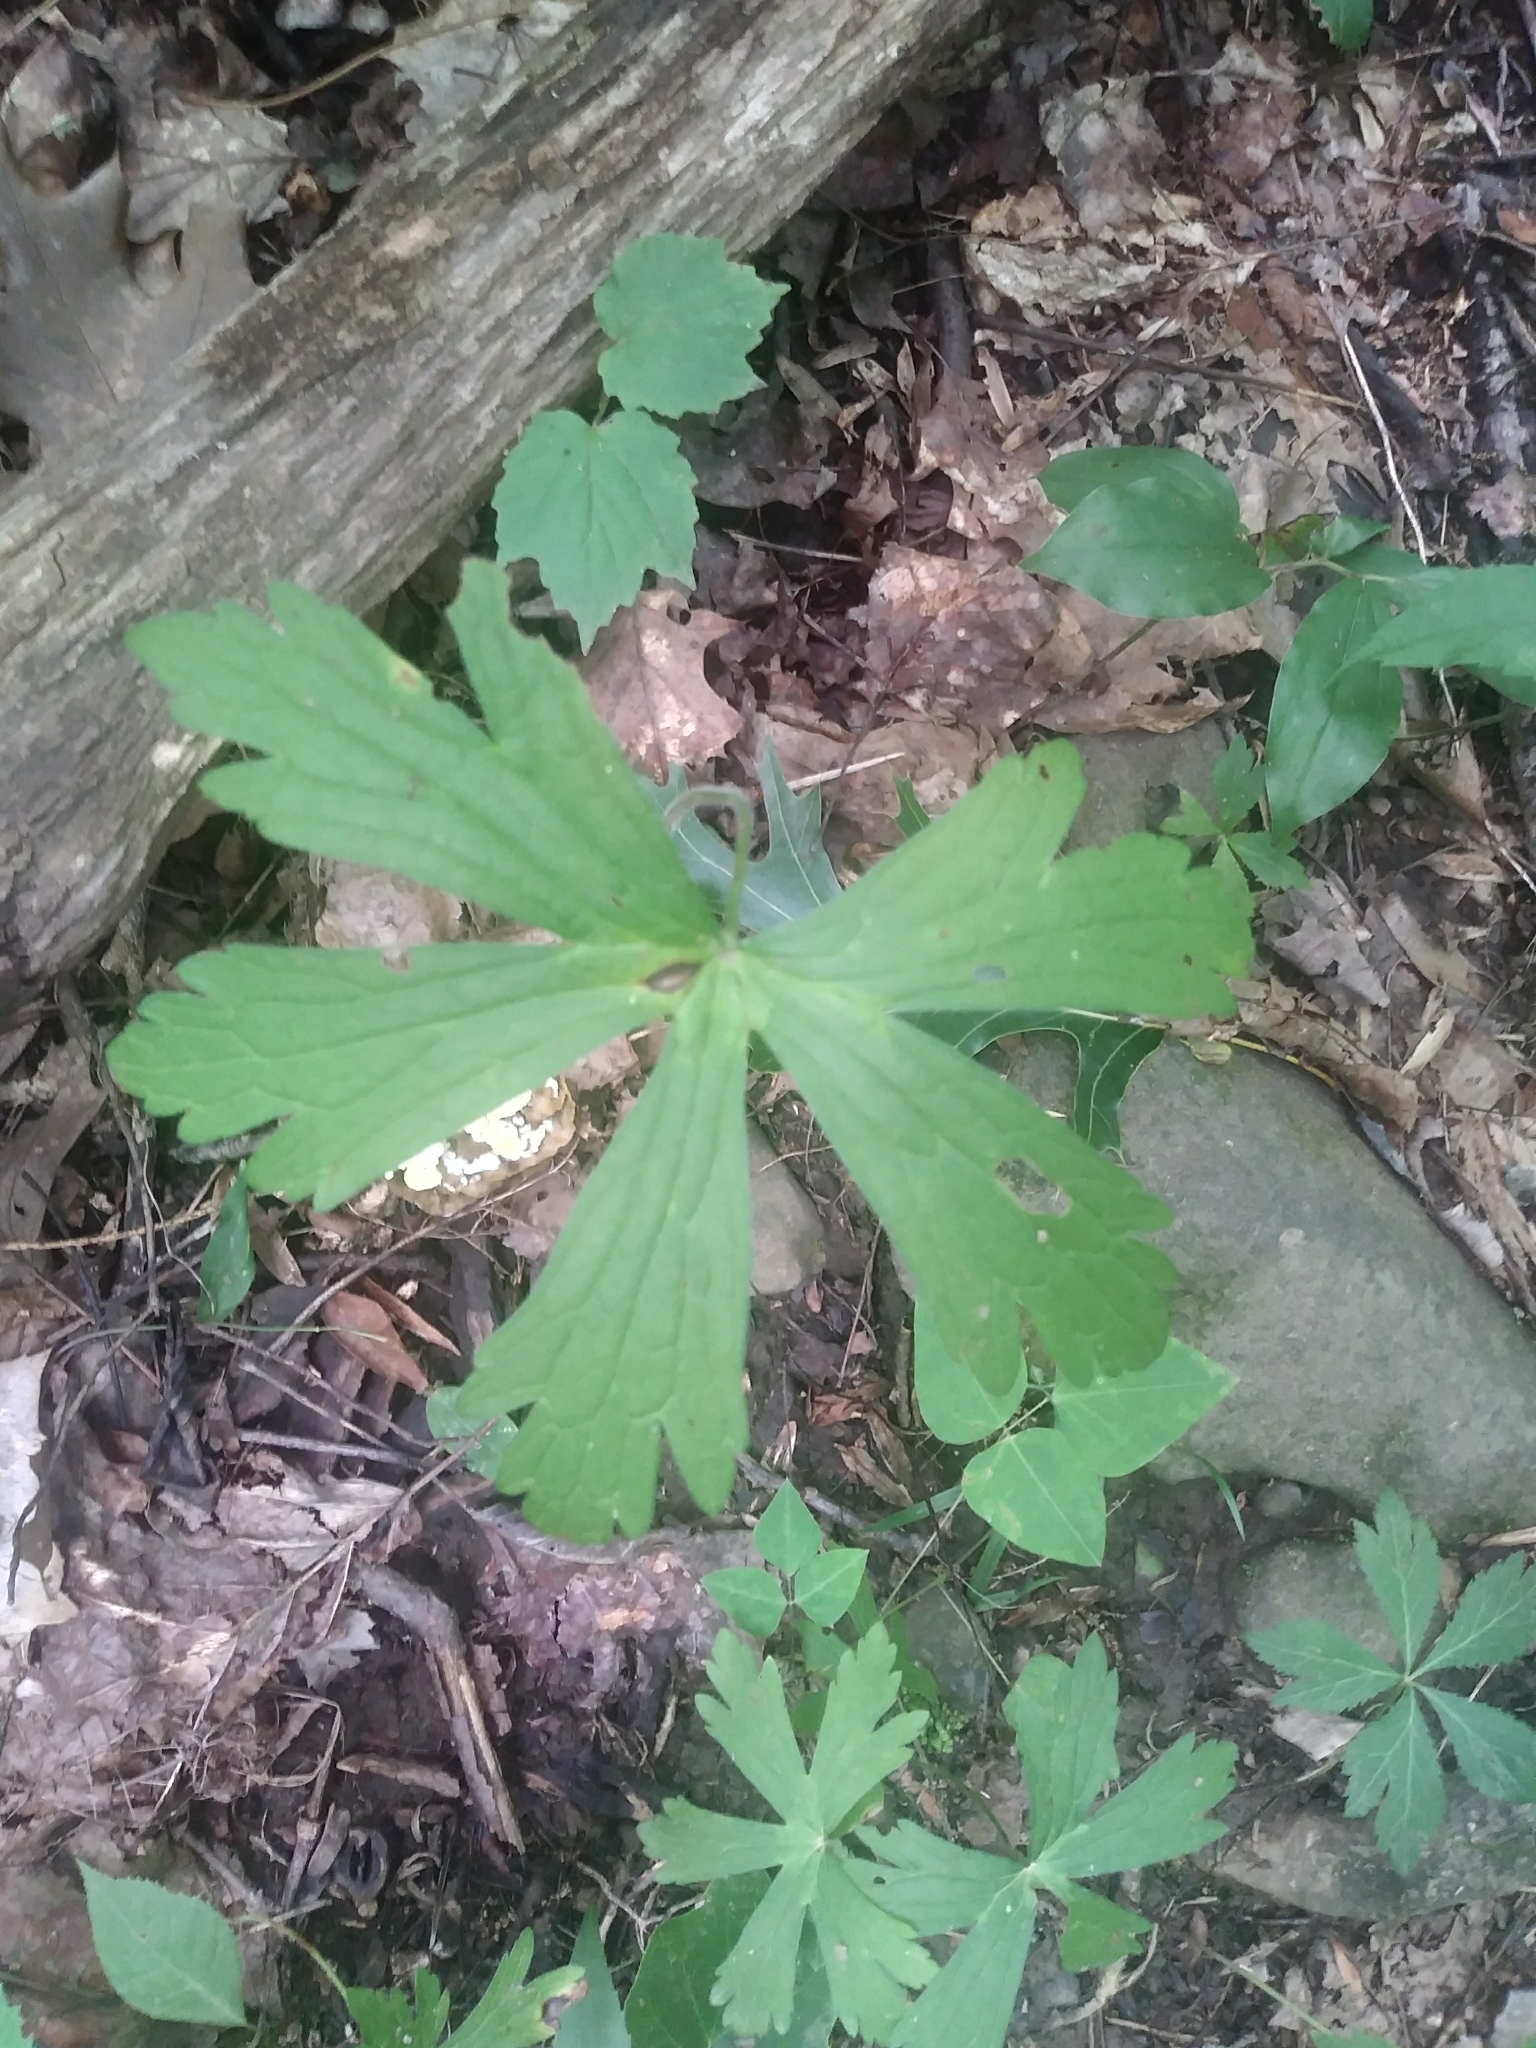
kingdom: Plantae
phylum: Tracheophyta
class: Magnoliopsida
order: Geraniales
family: Geraniaceae
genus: Geranium
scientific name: Geranium maculatum
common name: Spotted geranium
